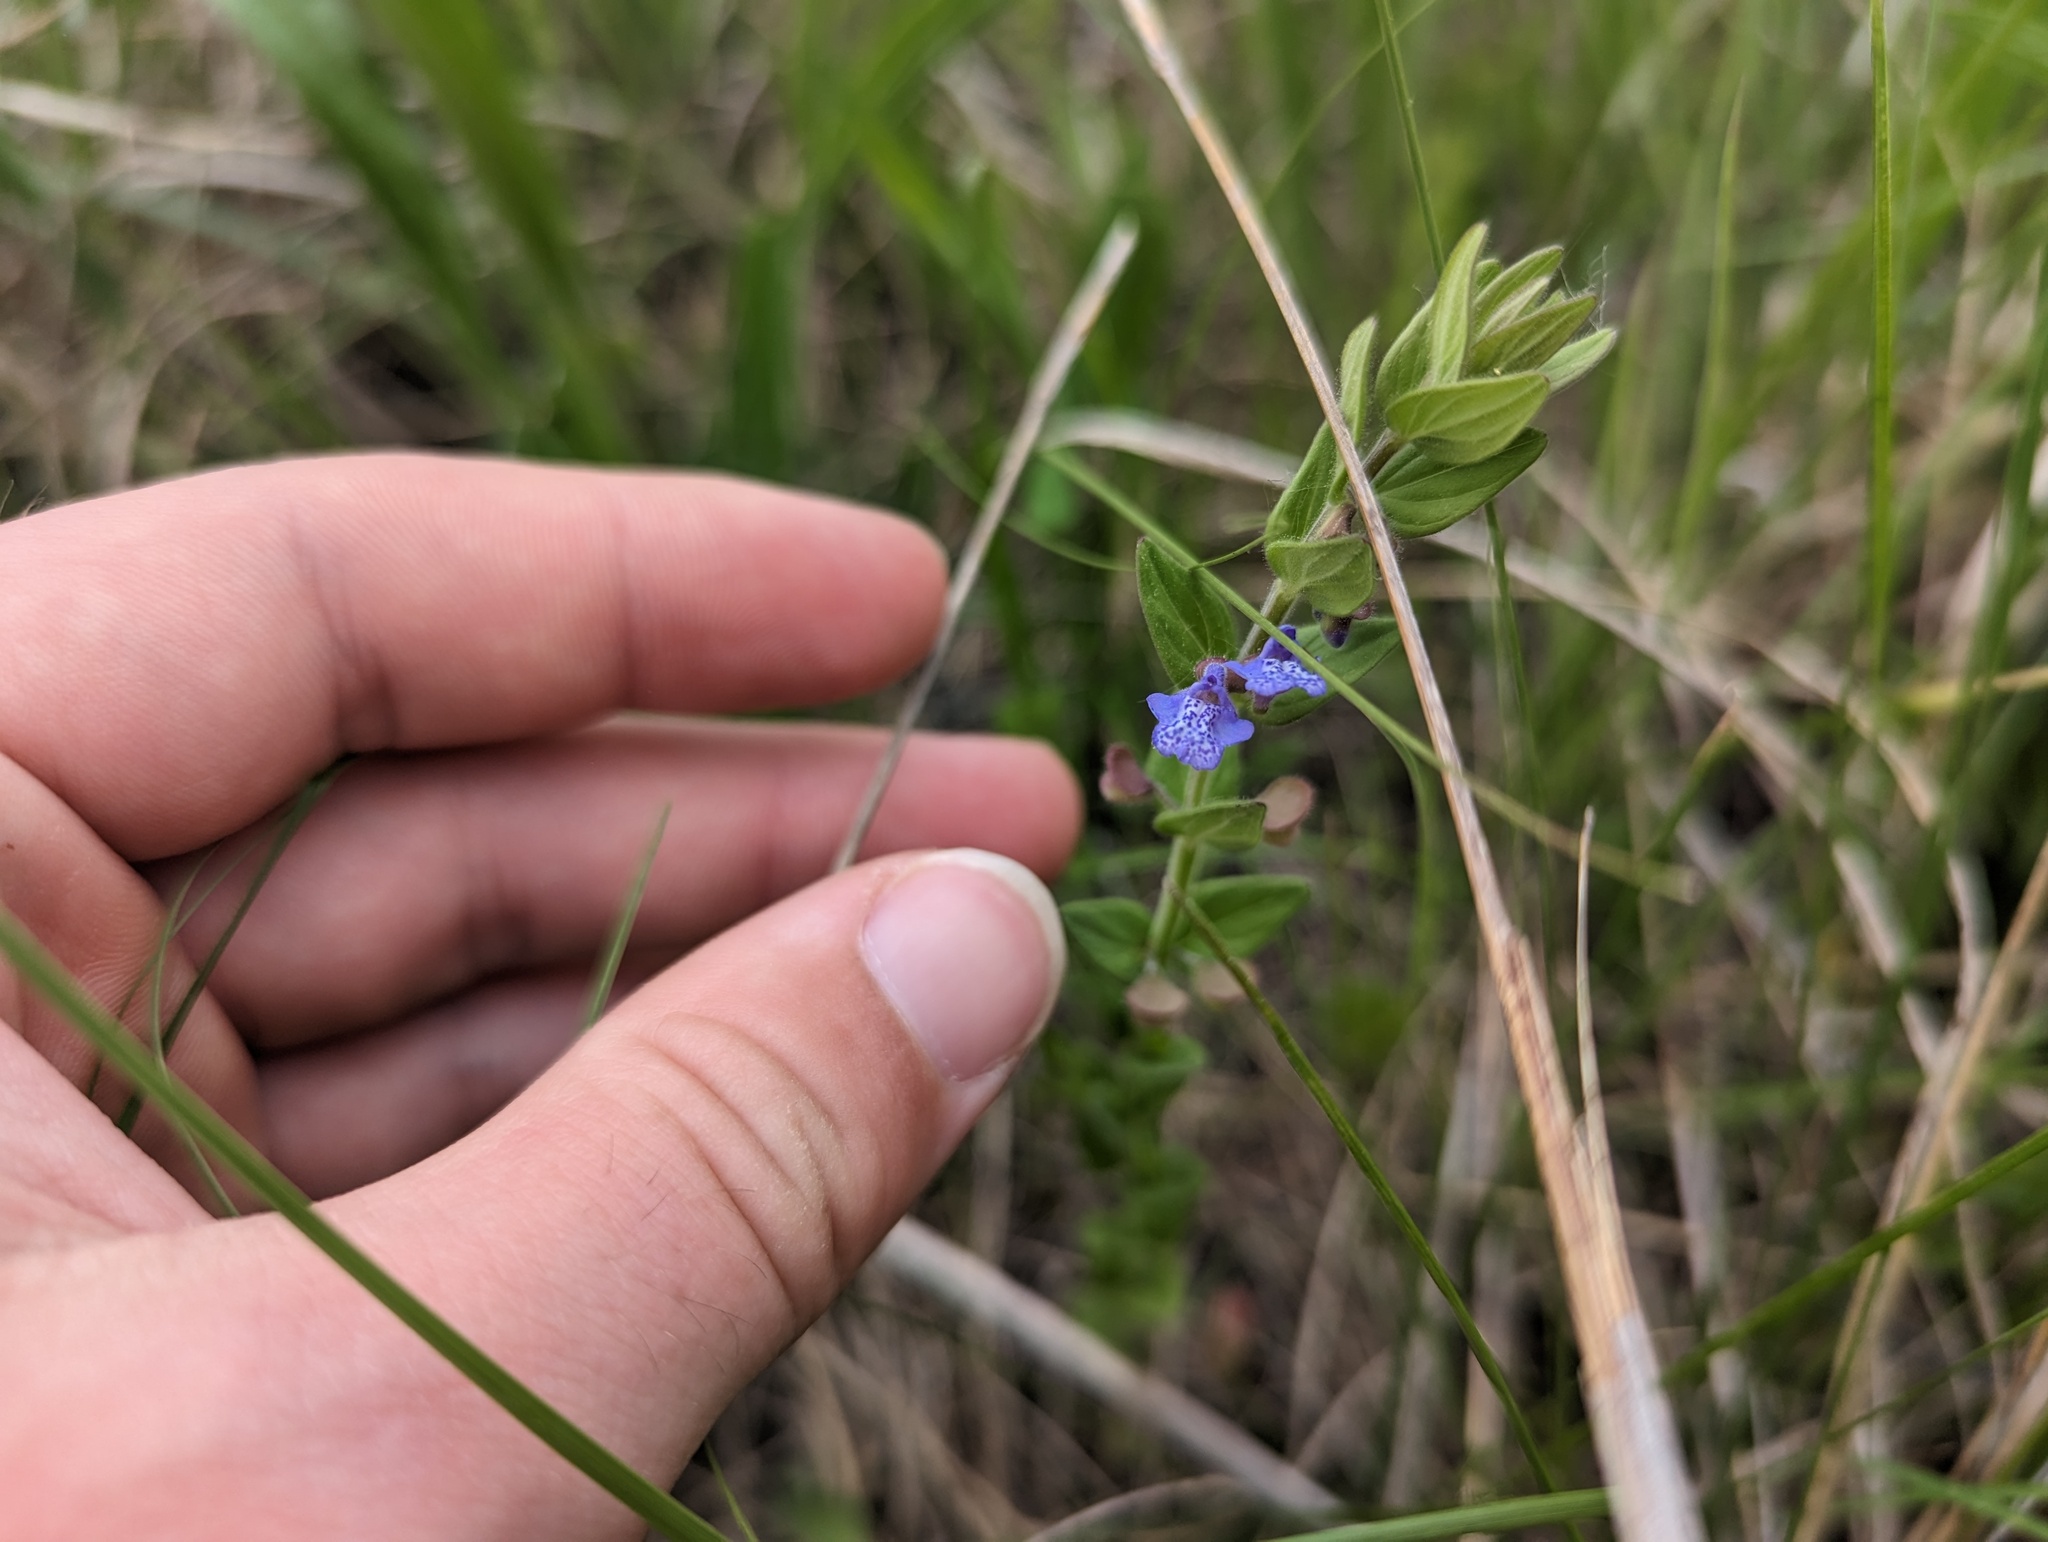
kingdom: Plantae
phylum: Tracheophyta
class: Magnoliopsida
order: Lamiales
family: Lamiaceae
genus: Scutellaria
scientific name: Scutellaria parvula
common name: Little scullcap
